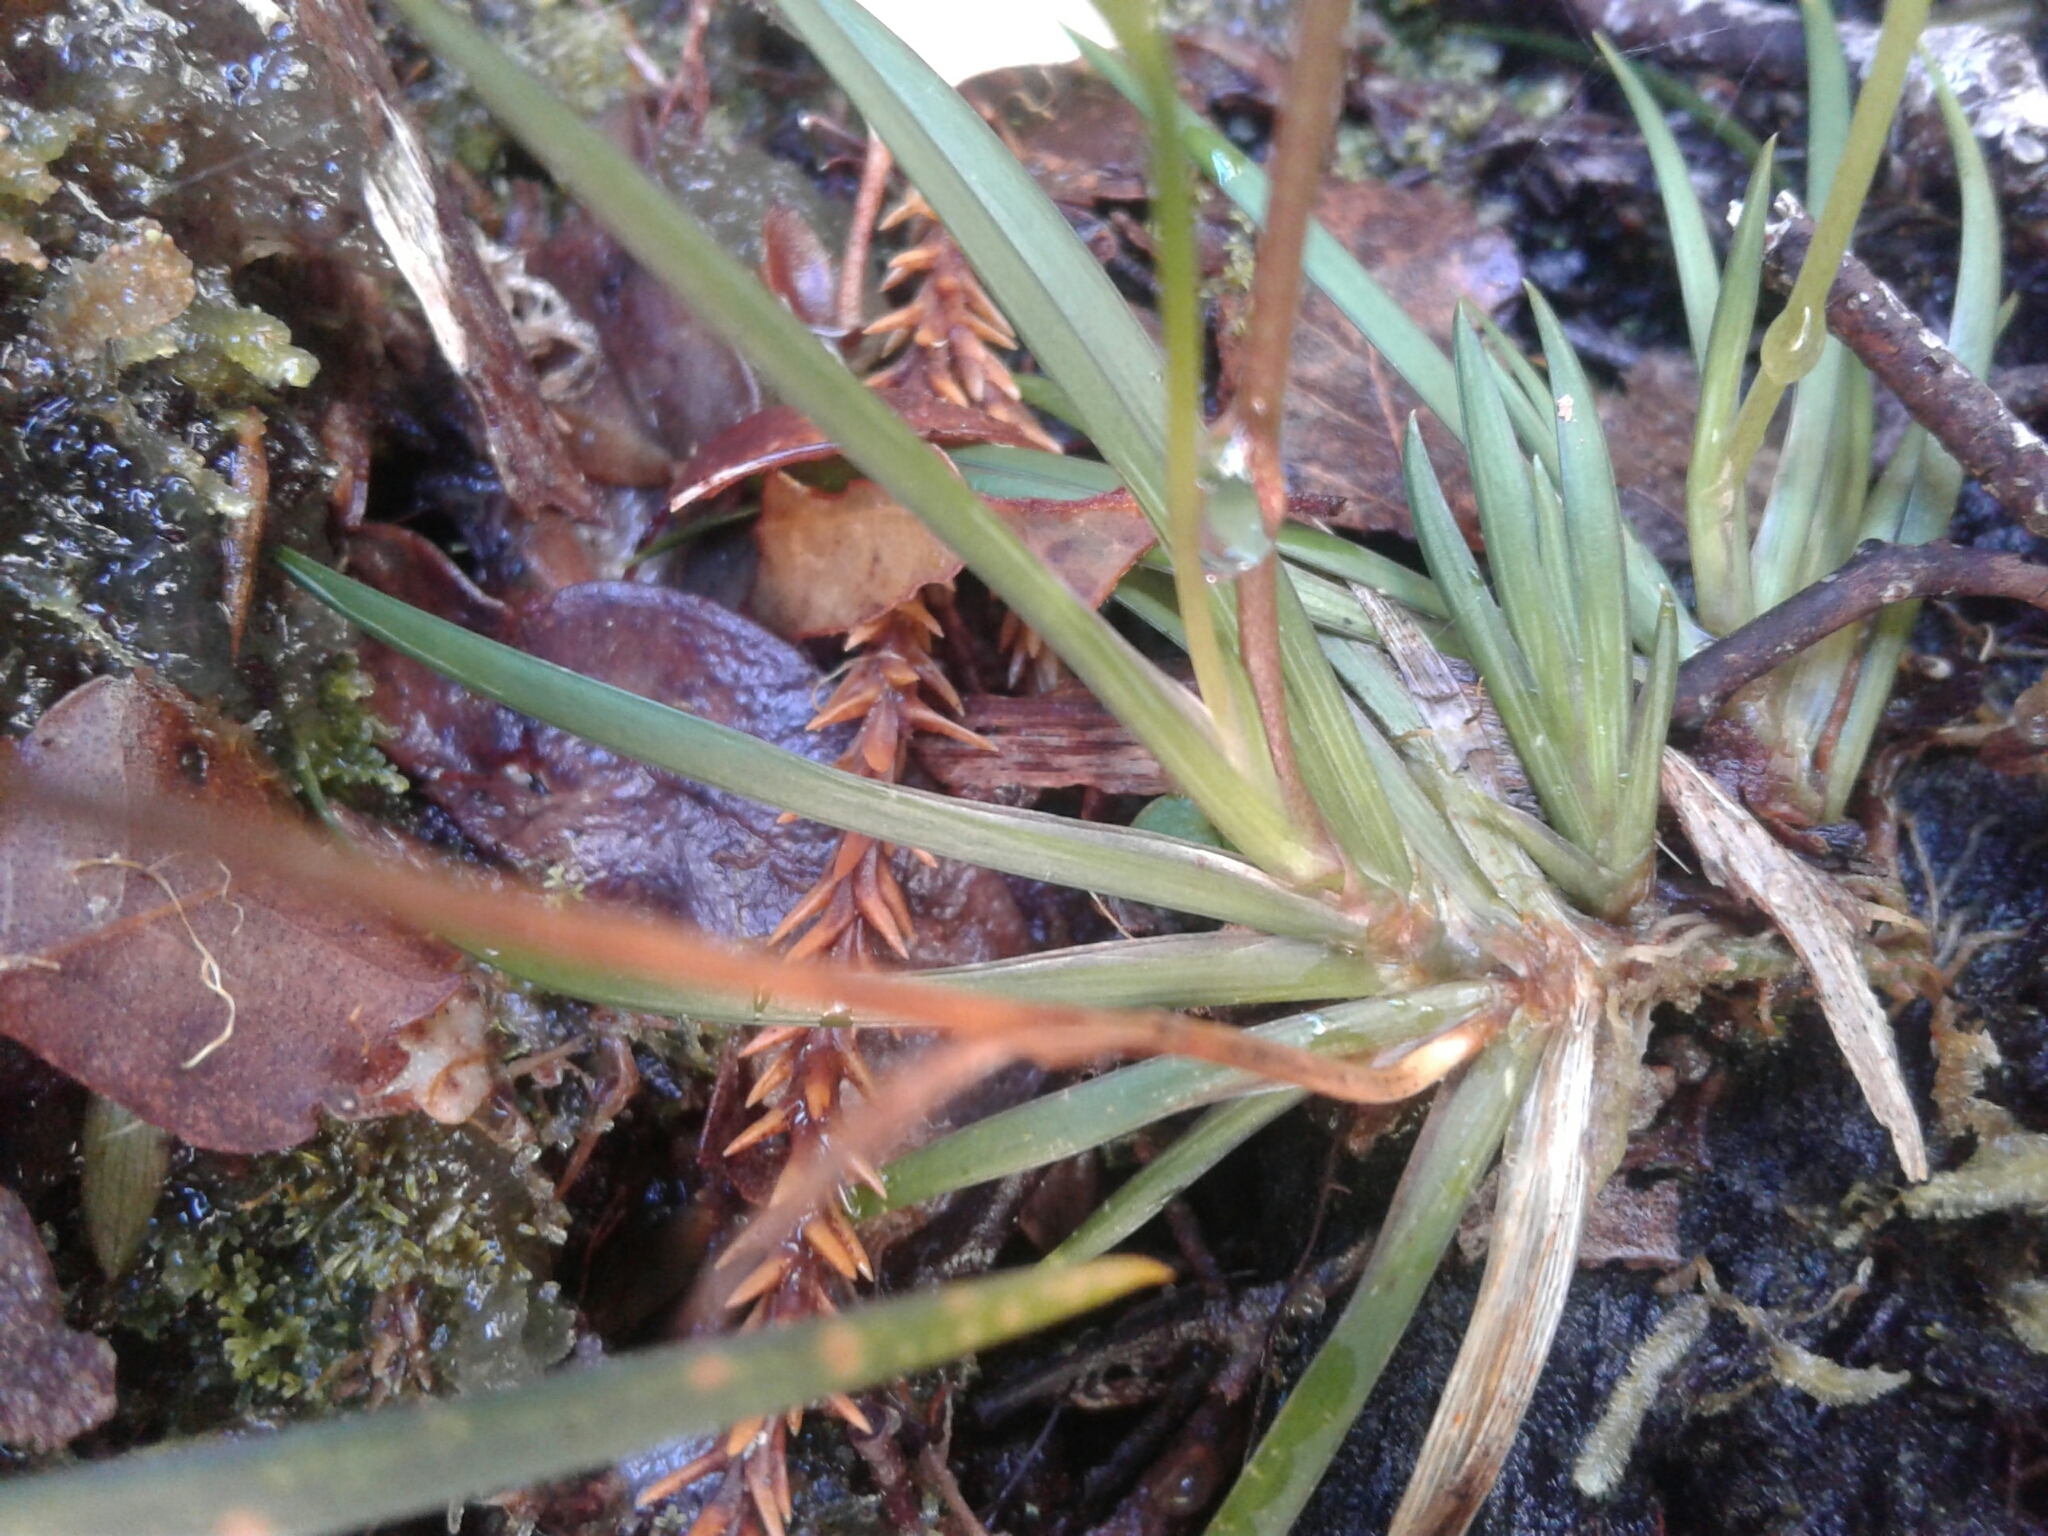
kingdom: Plantae
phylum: Tracheophyta
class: Liliopsida
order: Asparagales
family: Iridaceae
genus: Libertia
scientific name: Libertia micrantha
